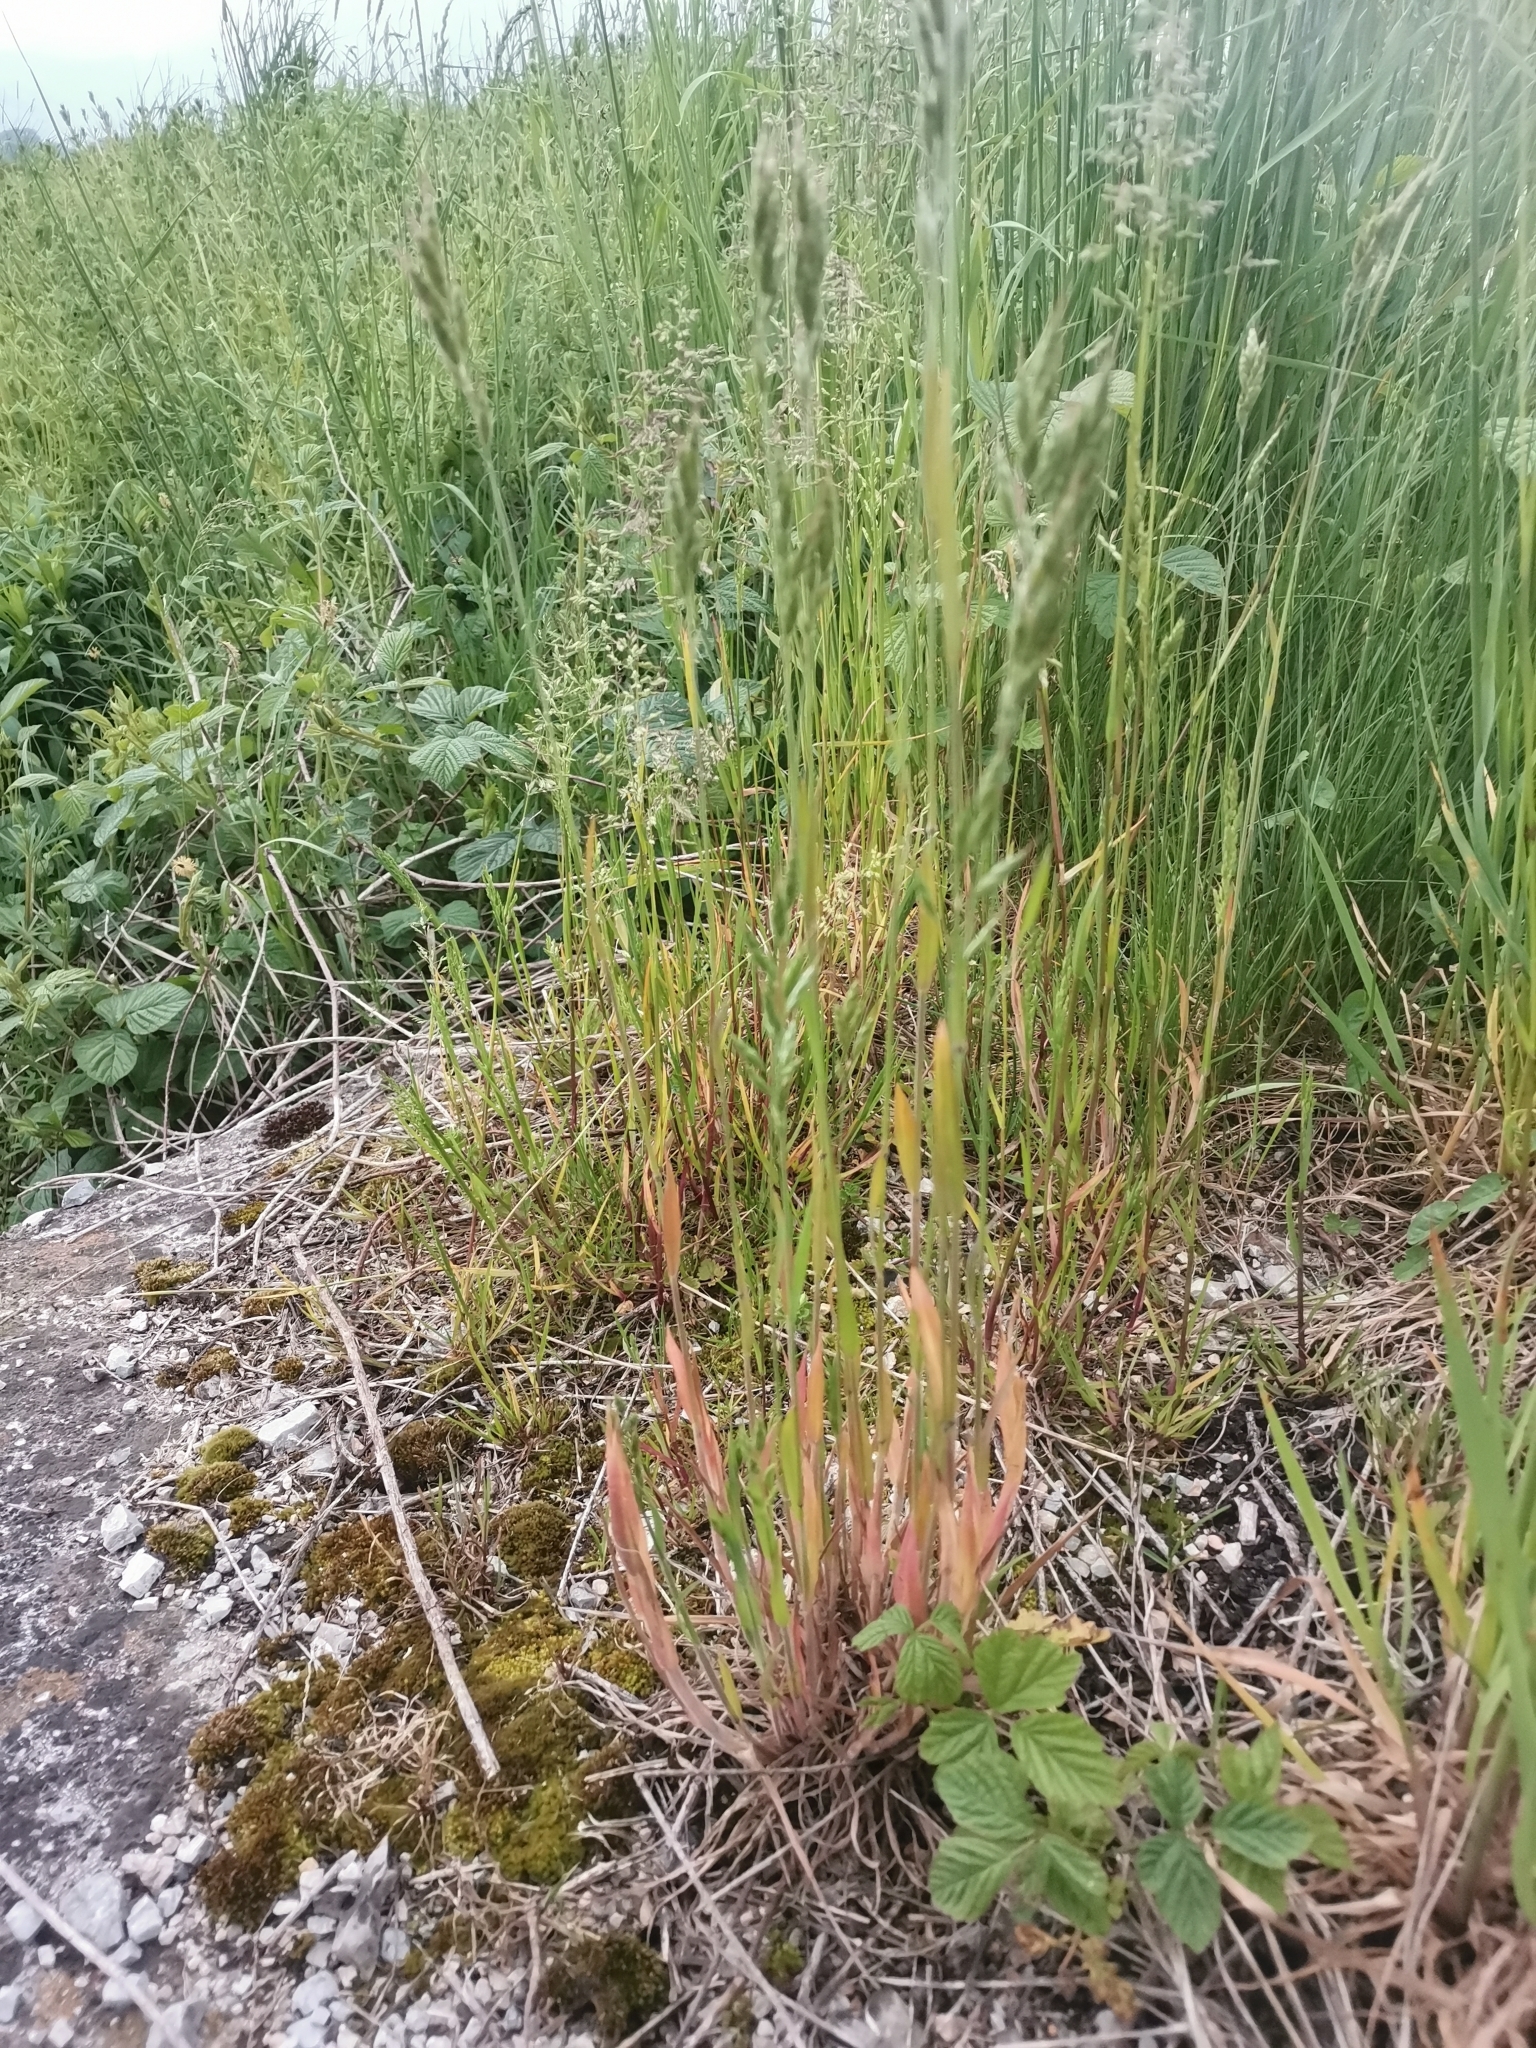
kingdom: Plantae
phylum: Tracheophyta
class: Liliopsida
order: Poales
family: Poaceae
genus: Bromus
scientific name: Bromus hordeaceus
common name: Soft brome
